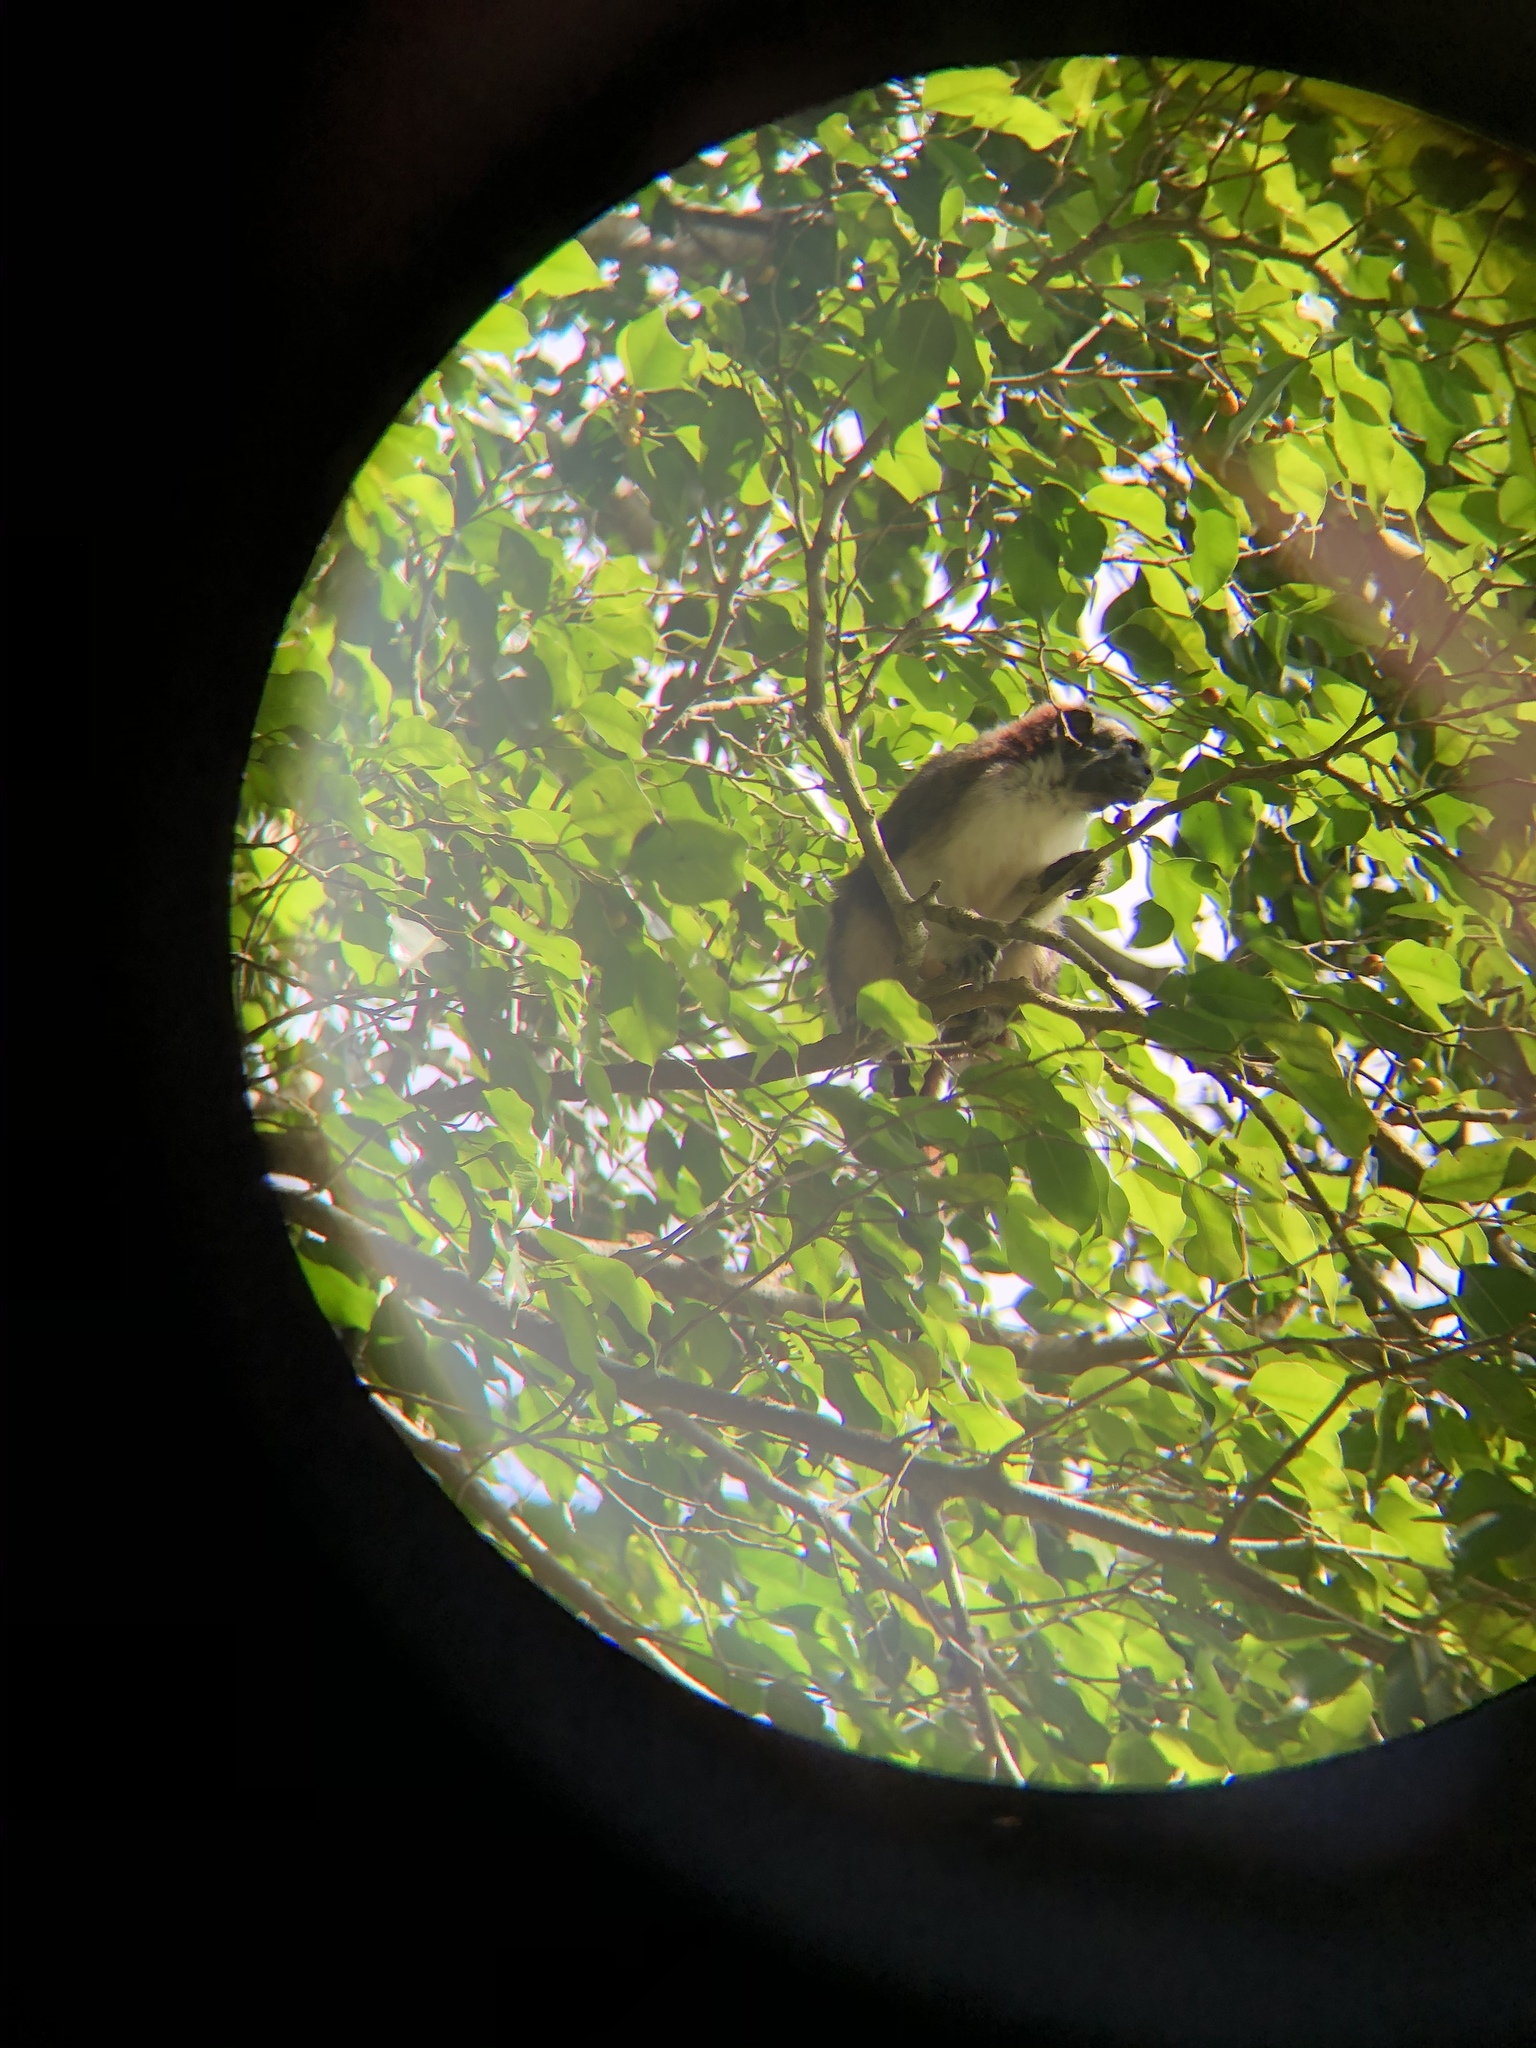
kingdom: Animalia
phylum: Chordata
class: Mammalia
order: Primates
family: Callitrichidae
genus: Saguinus
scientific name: Saguinus geoffroyi
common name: Geoffroy s tamarin
